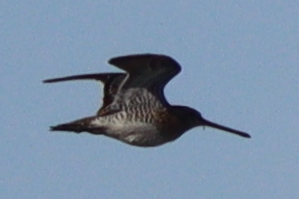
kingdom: Animalia
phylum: Chordata
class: Aves
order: Charadriiformes
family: Scolopacidae
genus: Gallinago
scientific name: Gallinago gallinago
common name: Common snipe
